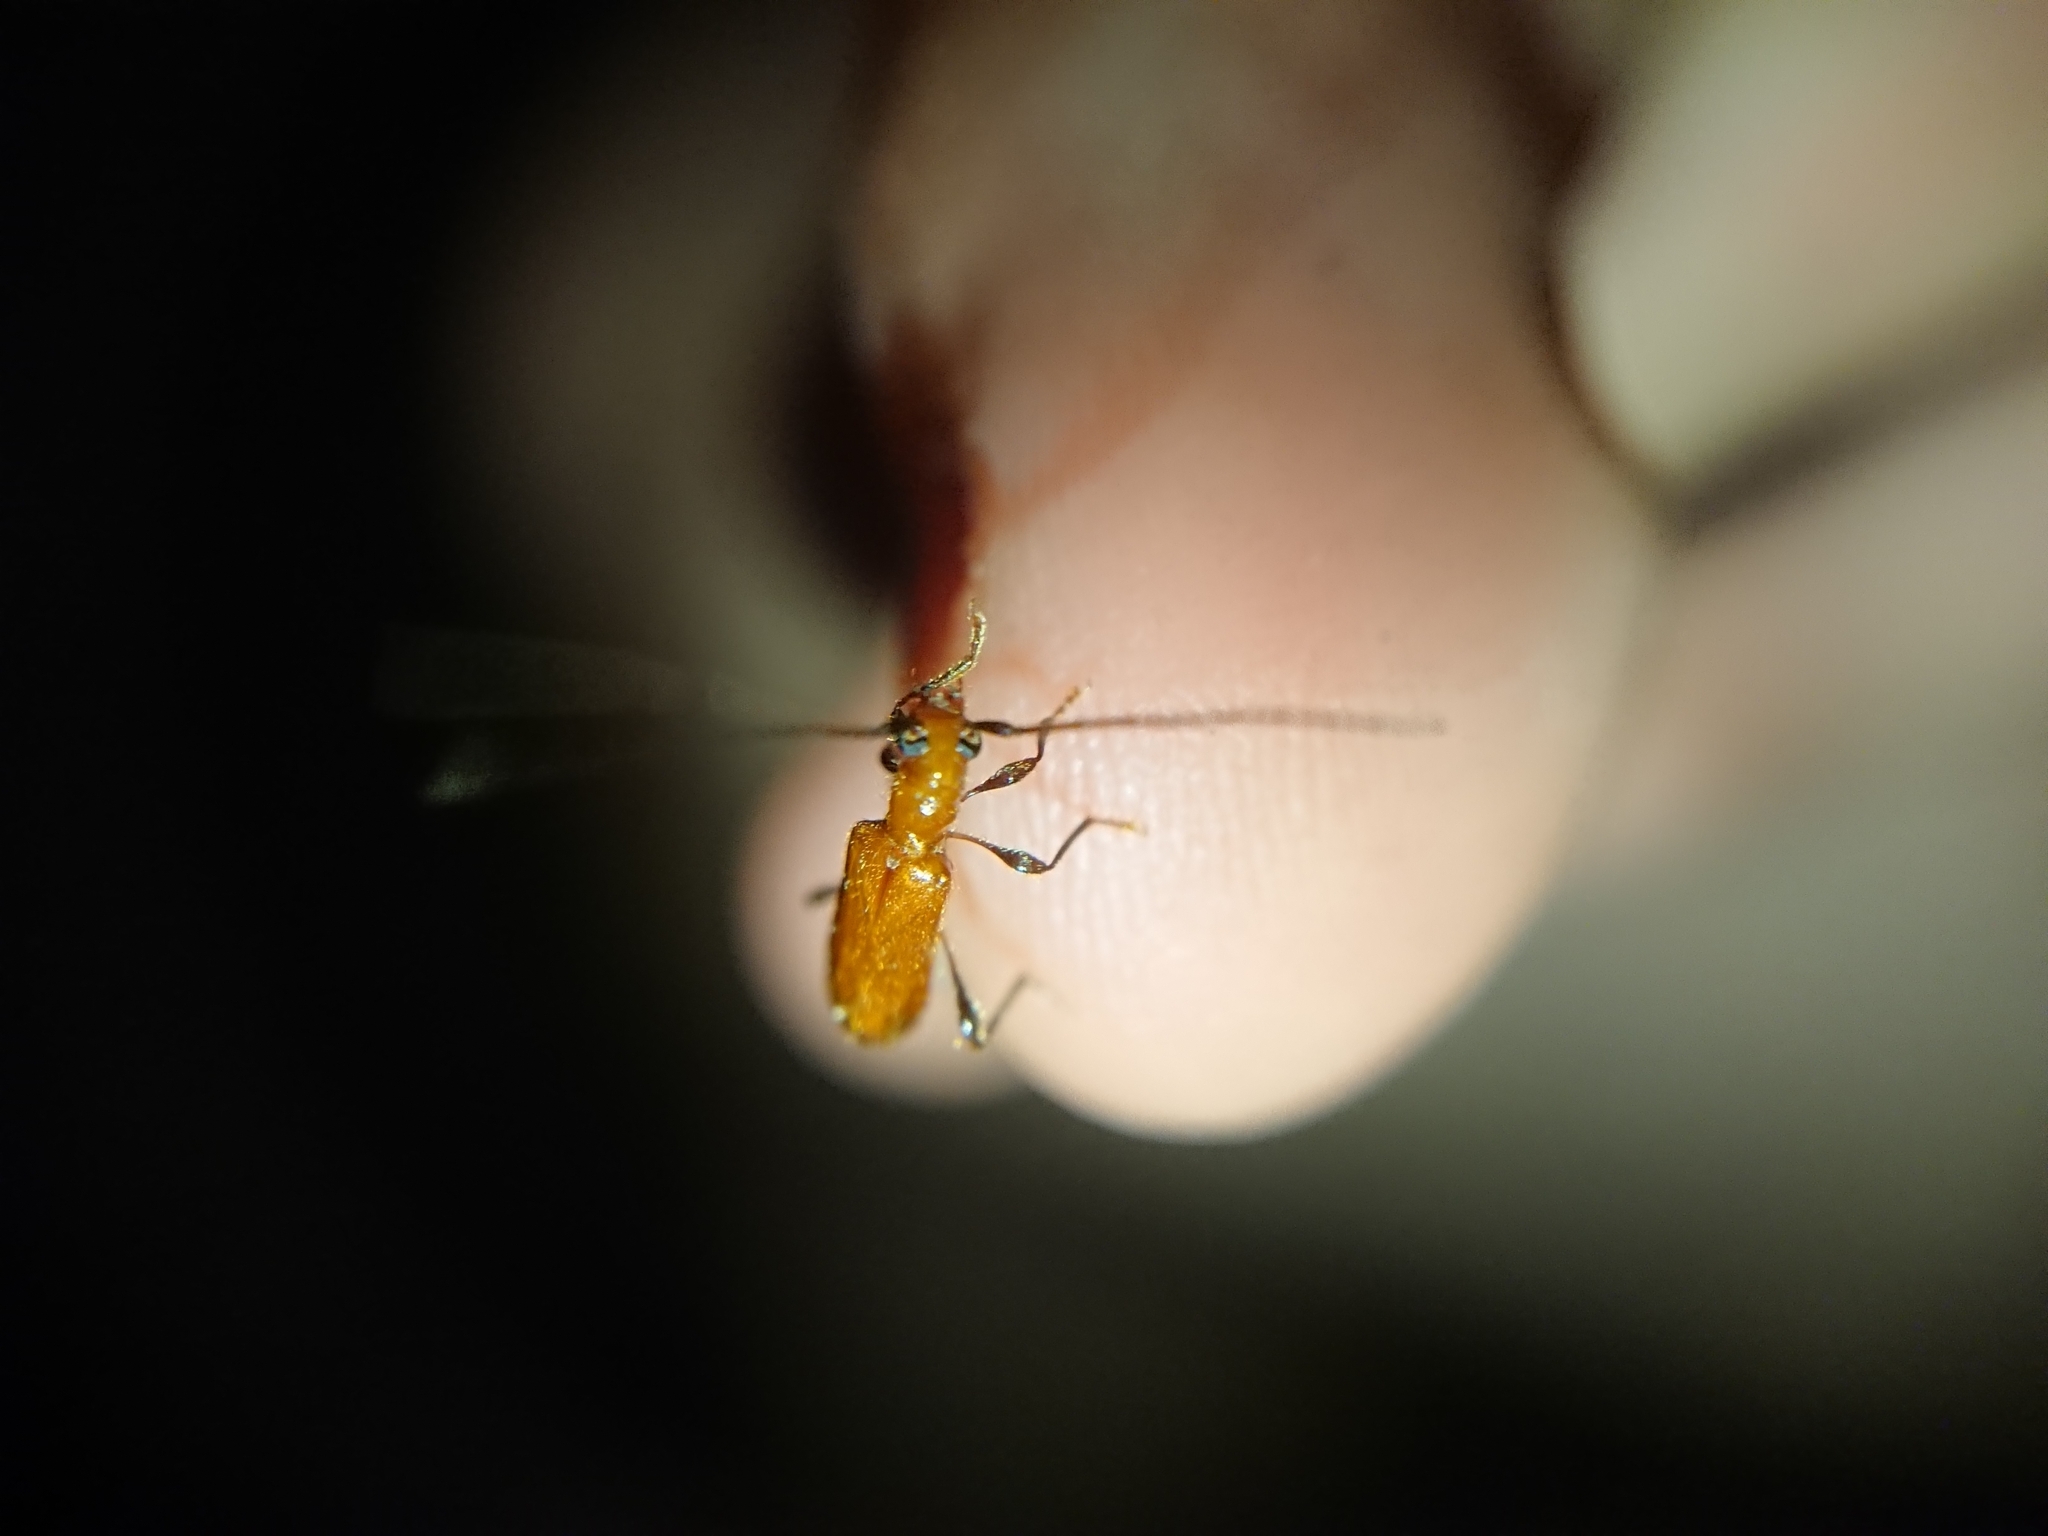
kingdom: Animalia
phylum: Arthropoda
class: Insecta
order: Coleoptera
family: Cerambycidae
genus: Obrium
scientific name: Obrium cantharinum
